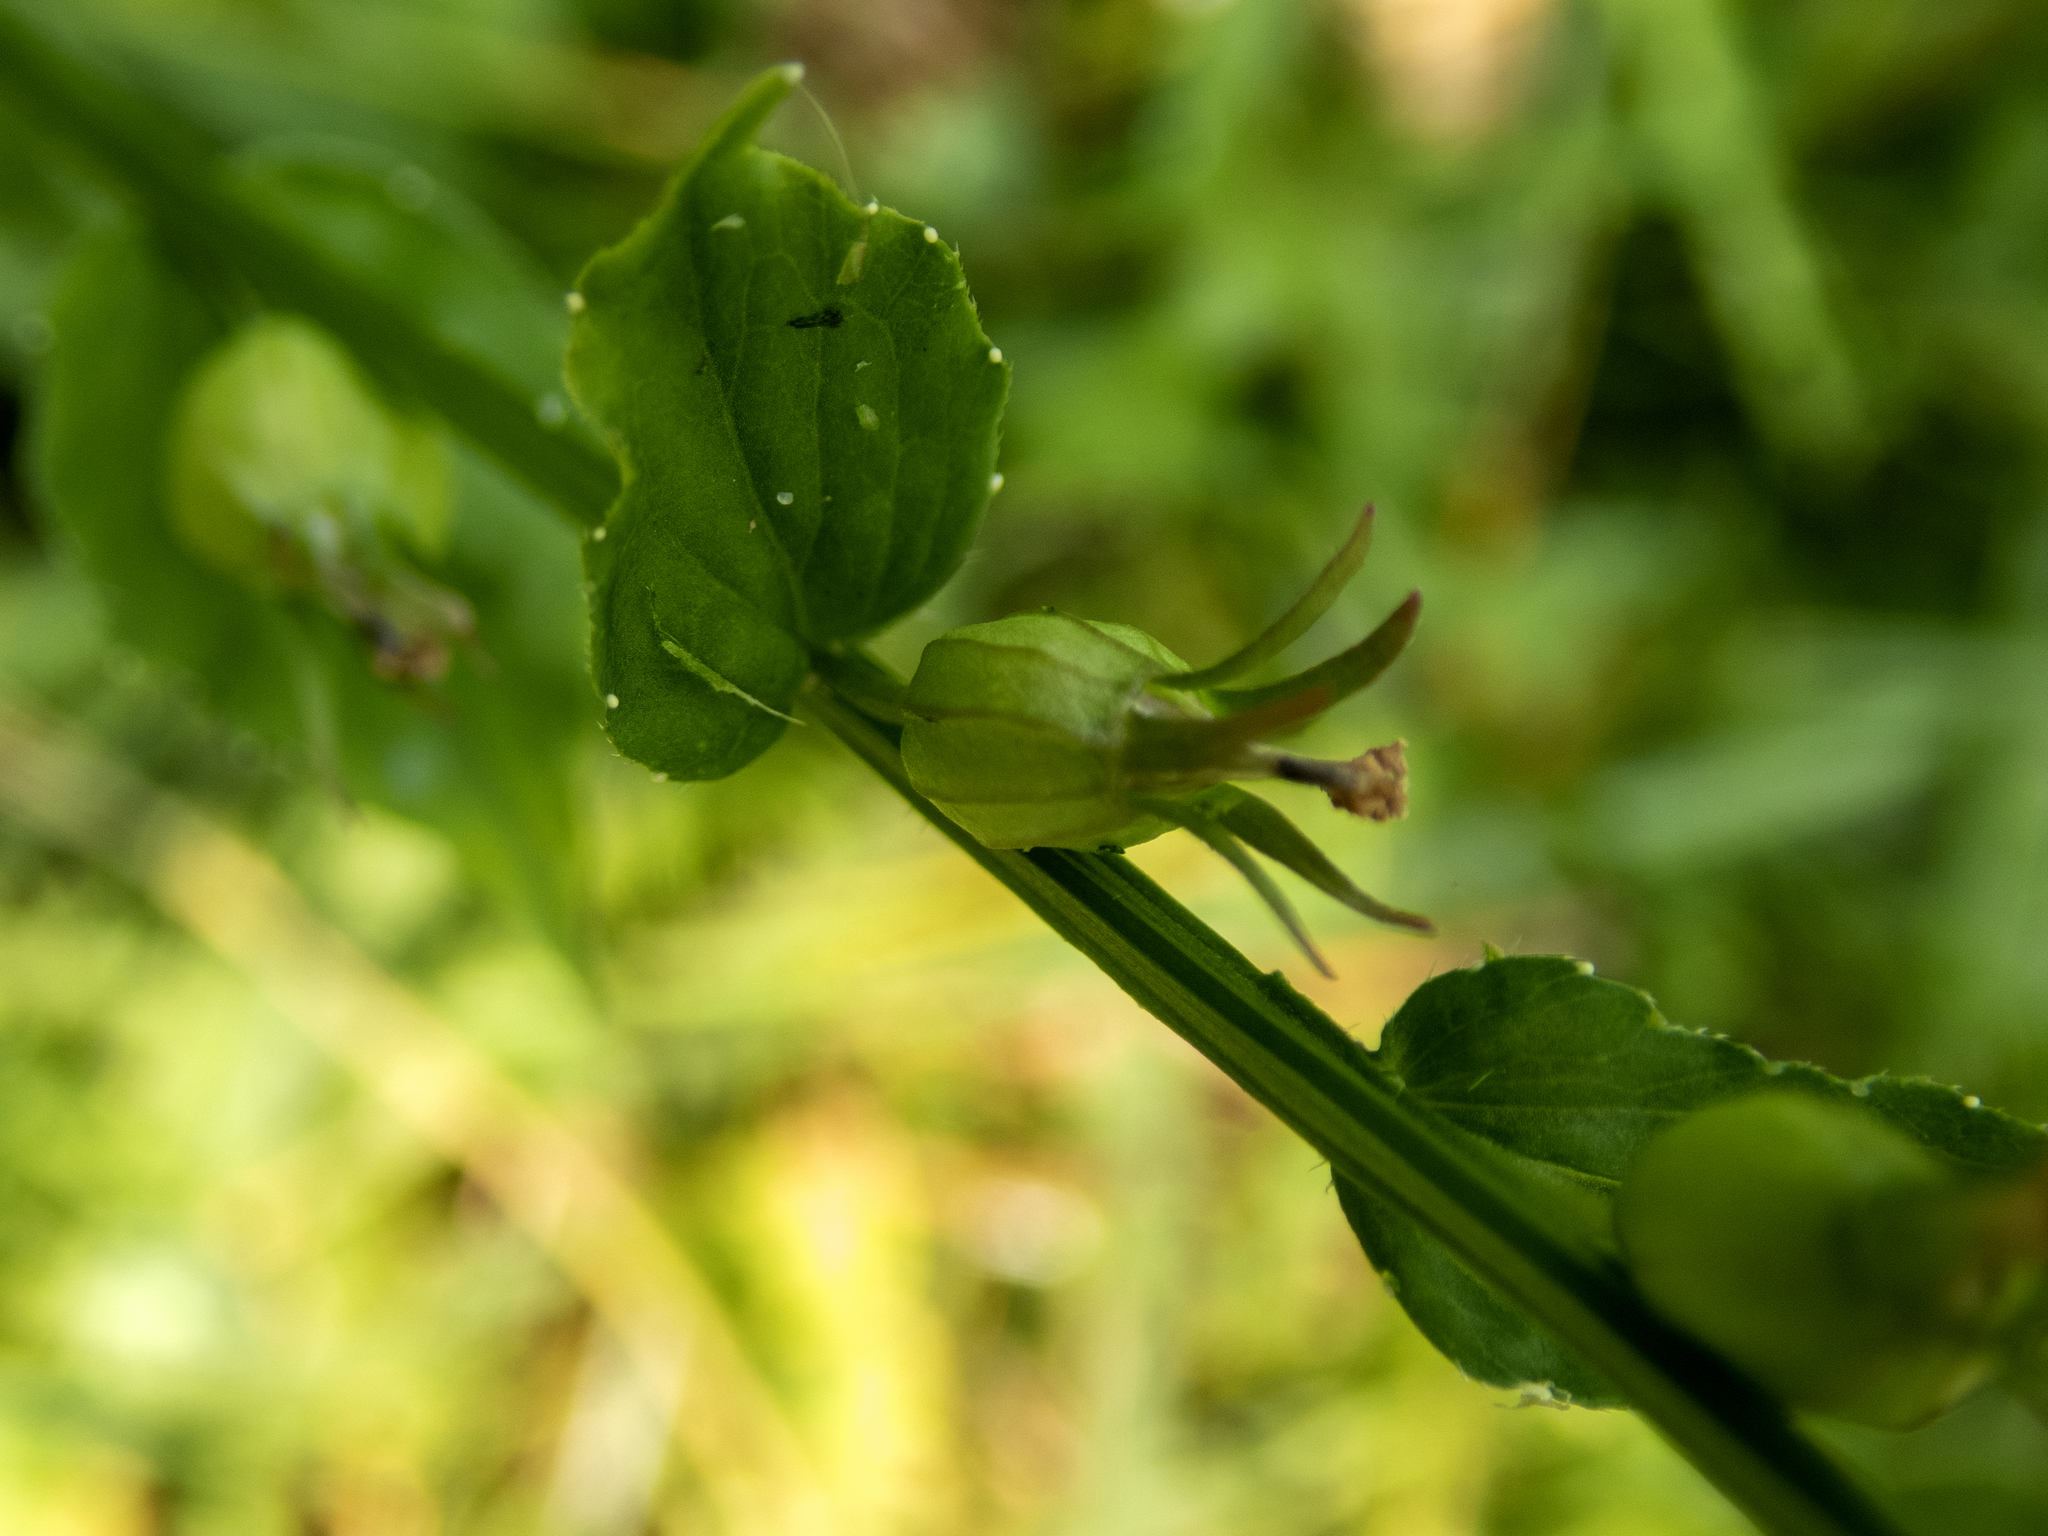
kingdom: Plantae
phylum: Tracheophyta
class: Magnoliopsida
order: Asterales
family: Campanulaceae
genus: Lobelia
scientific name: Lobelia inflata
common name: Indian tobacco
